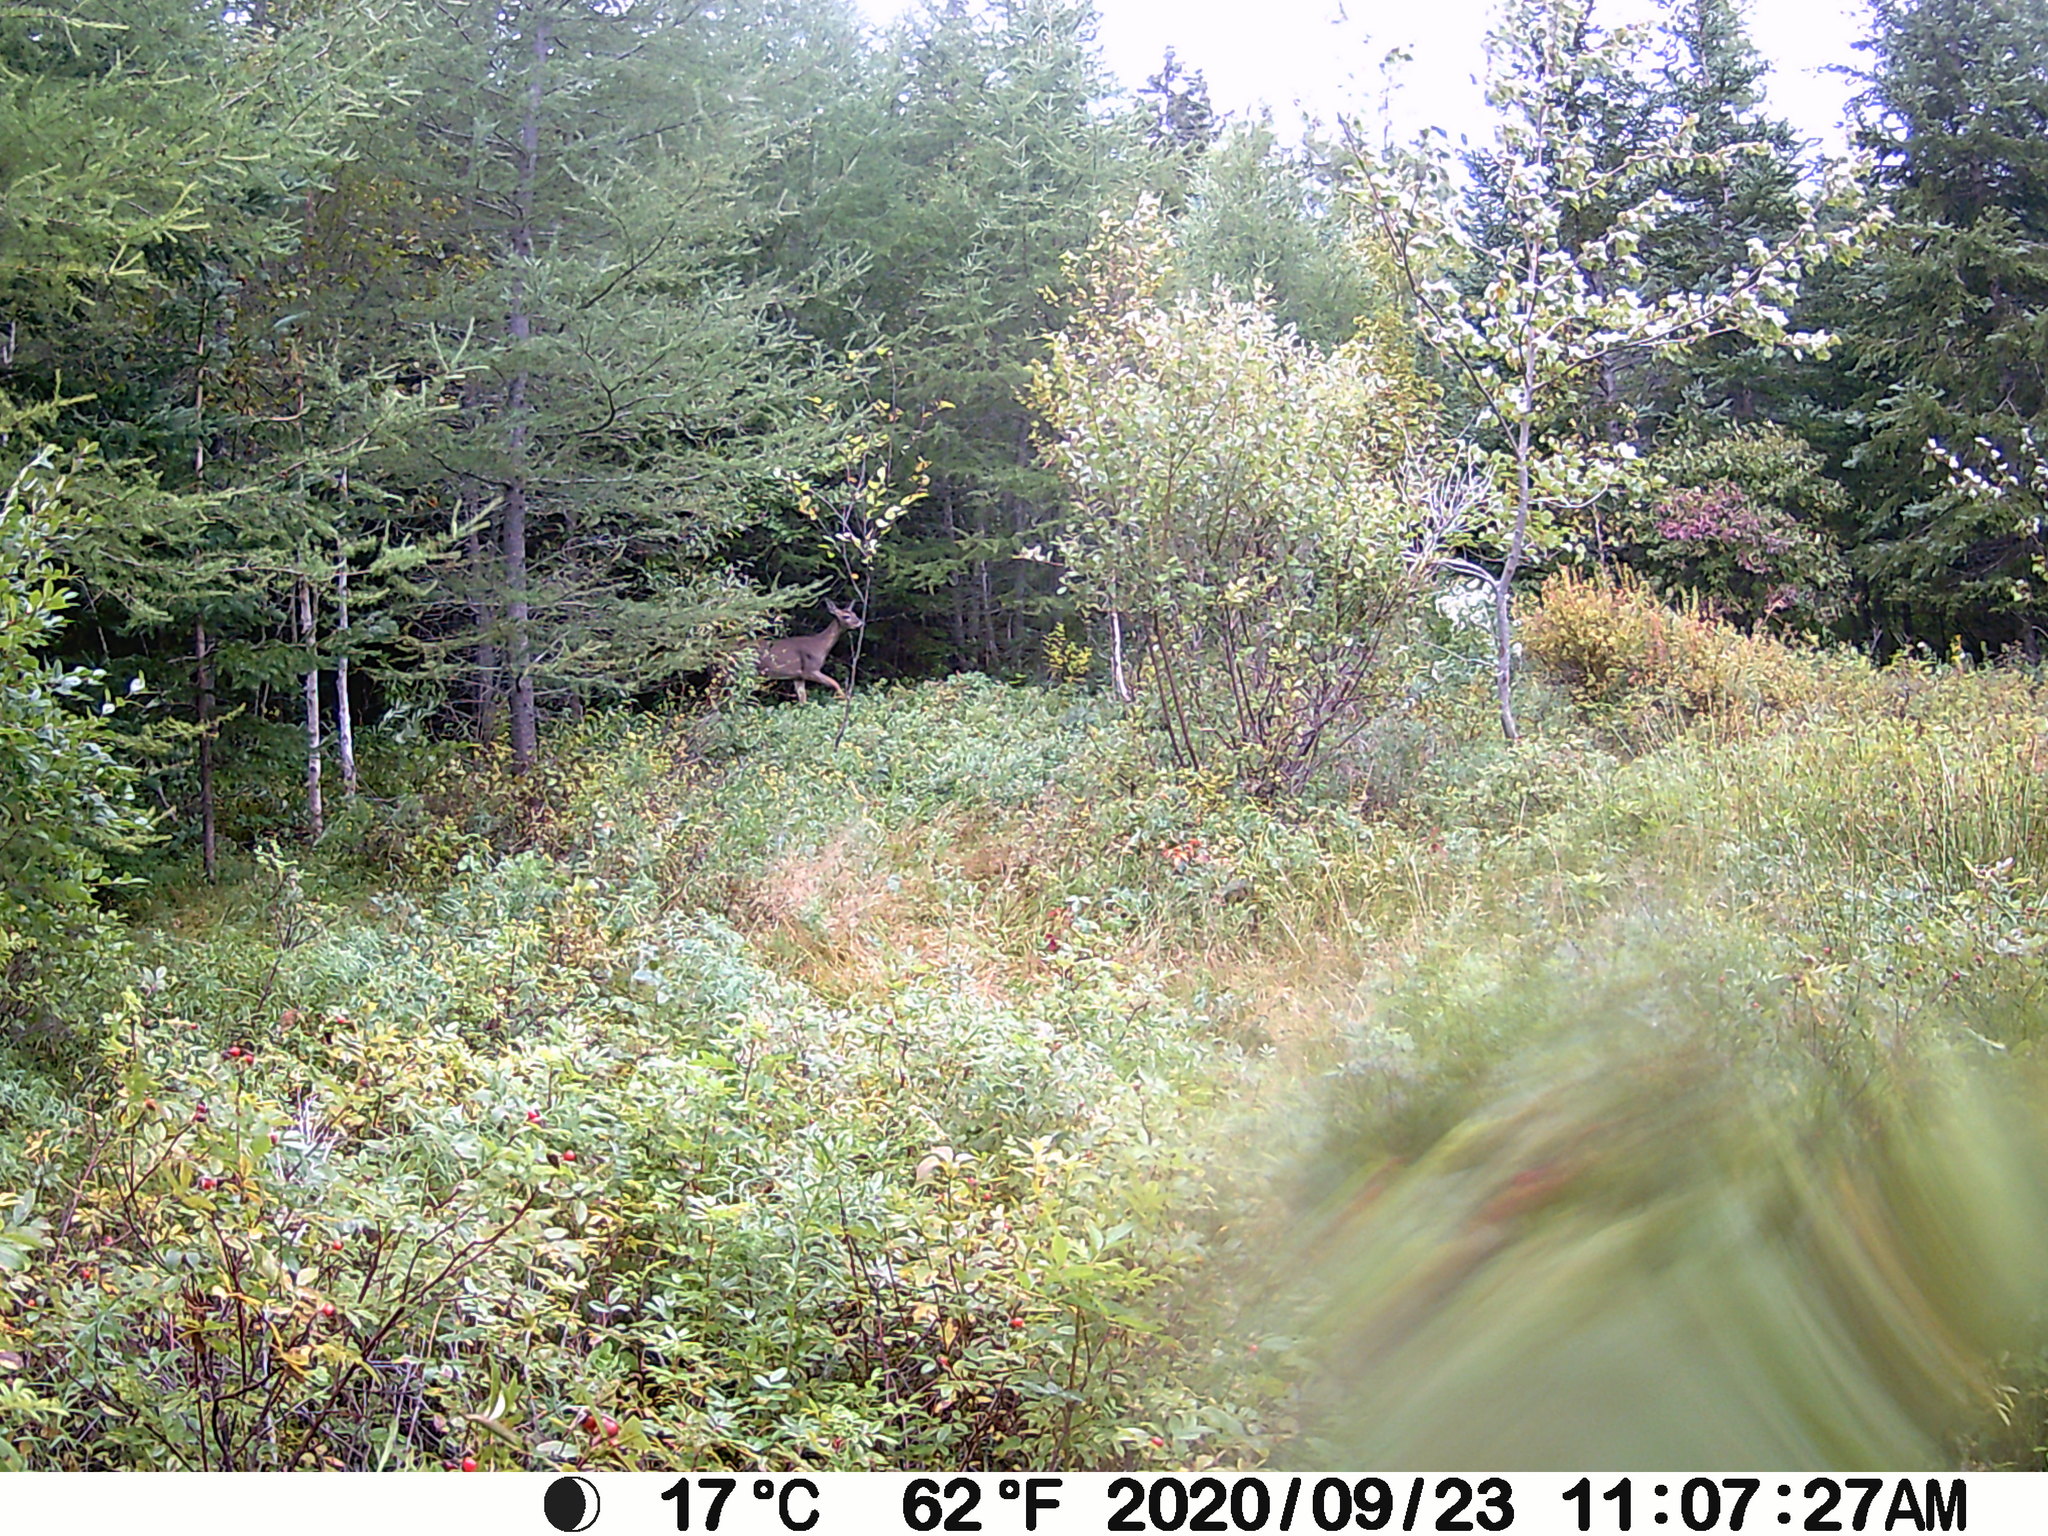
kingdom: Animalia
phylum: Chordata
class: Mammalia
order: Artiodactyla
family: Cervidae
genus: Odocoileus
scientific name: Odocoileus virginianus
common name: White-tailed deer
